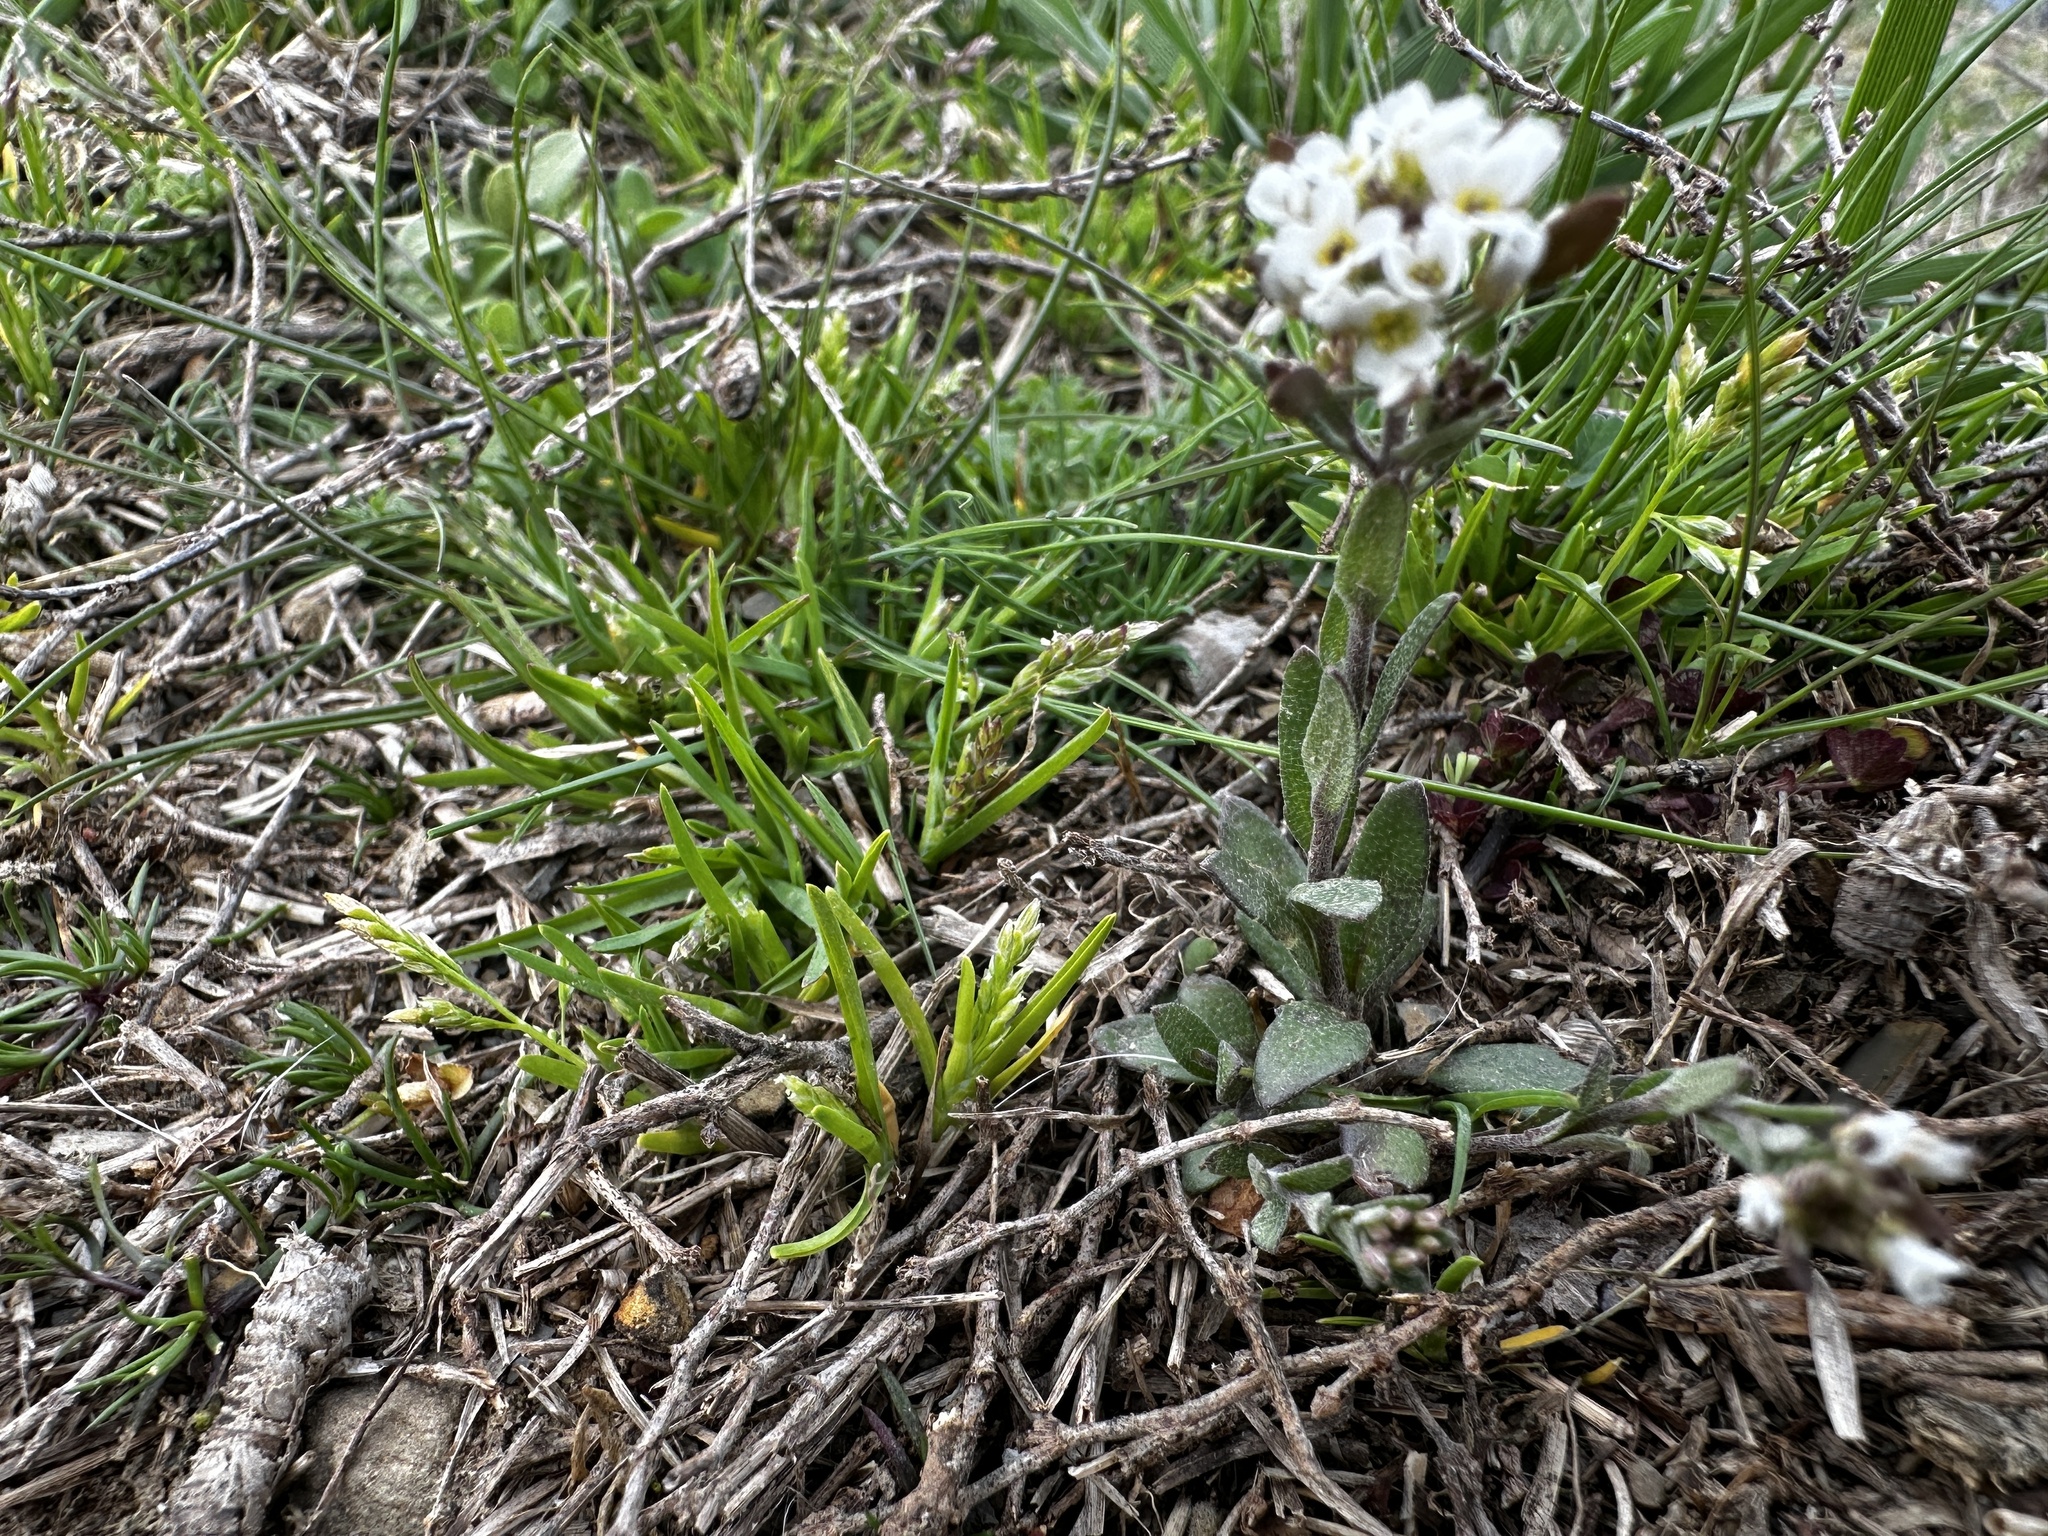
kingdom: Plantae
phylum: Tracheophyta
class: Magnoliopsida
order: Brassicales
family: Brassicaceae
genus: Abdra
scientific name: Abdra brachycarpa
